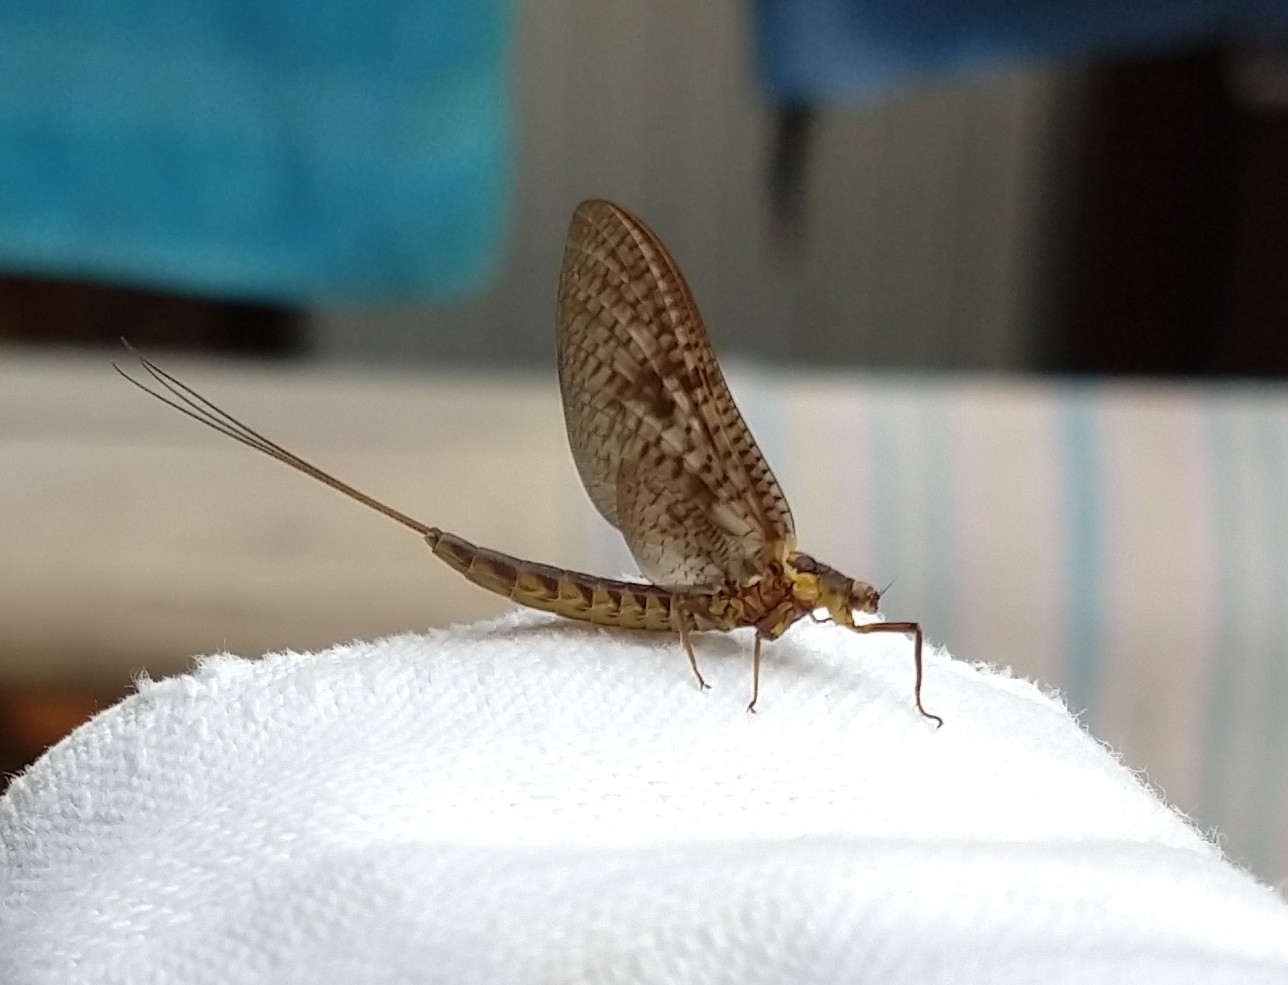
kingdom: Animalia
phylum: Arthropoda
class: Insecta
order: Ephemeroptera
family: Ephemeridae
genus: Ephemera
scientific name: Ephemera vulgata
